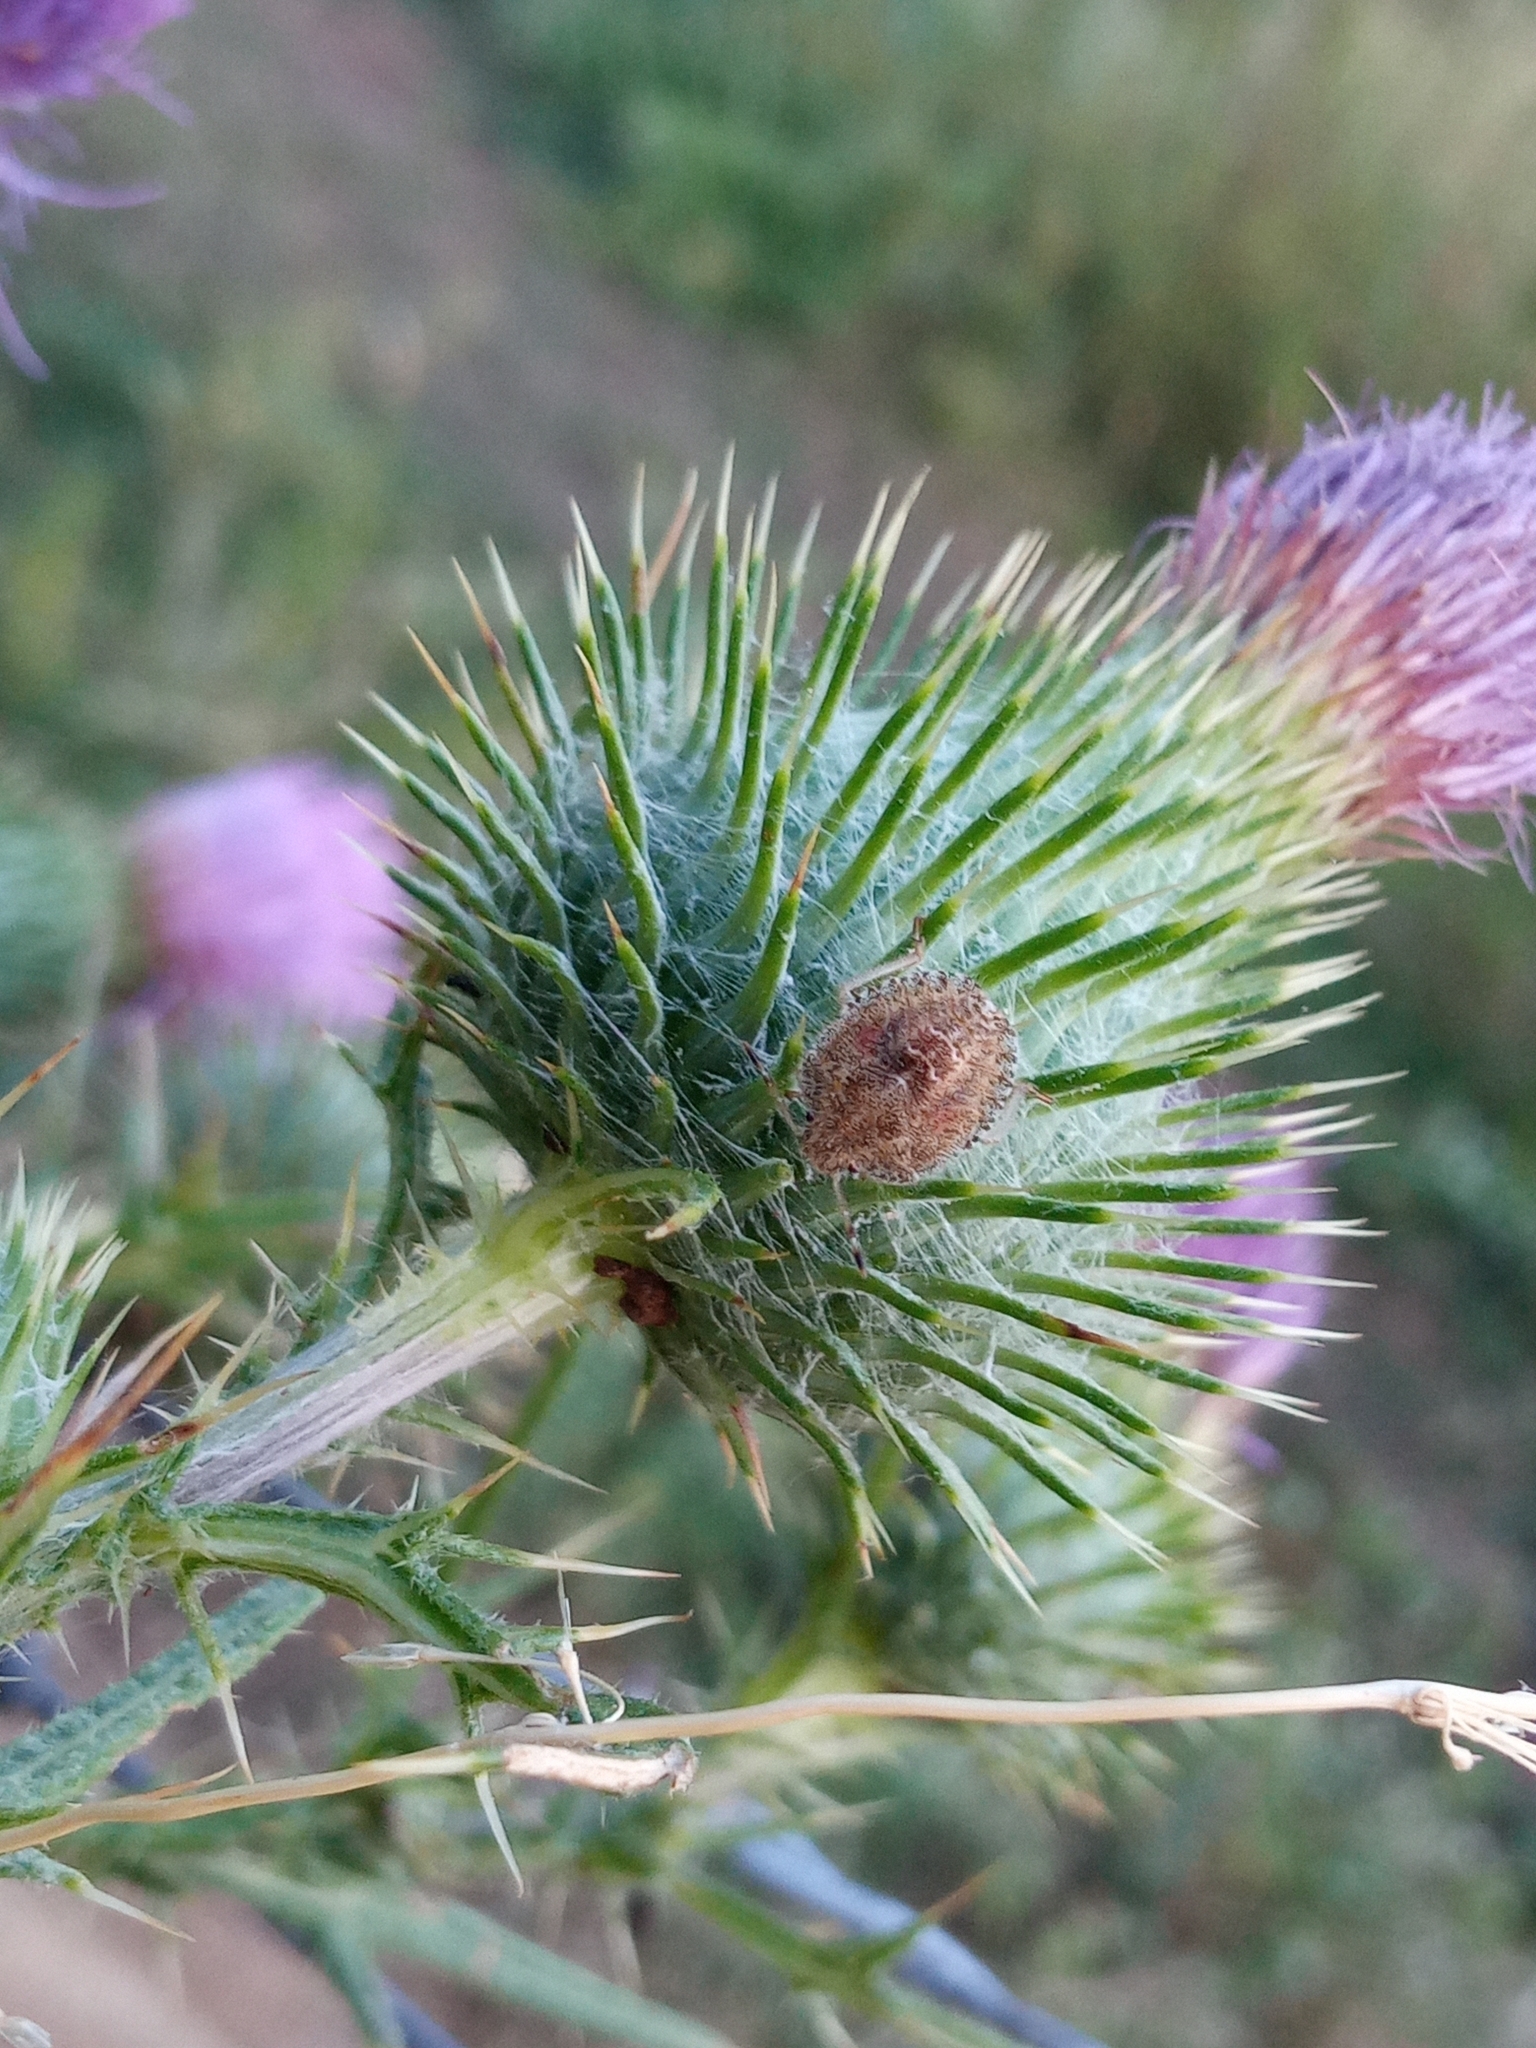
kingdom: Animalia
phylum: Arthropoda
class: Insecta
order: Hemiptera
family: Pentatomidae
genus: Dolycoris
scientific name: Dolycoris baccarum
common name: Sloe bug
